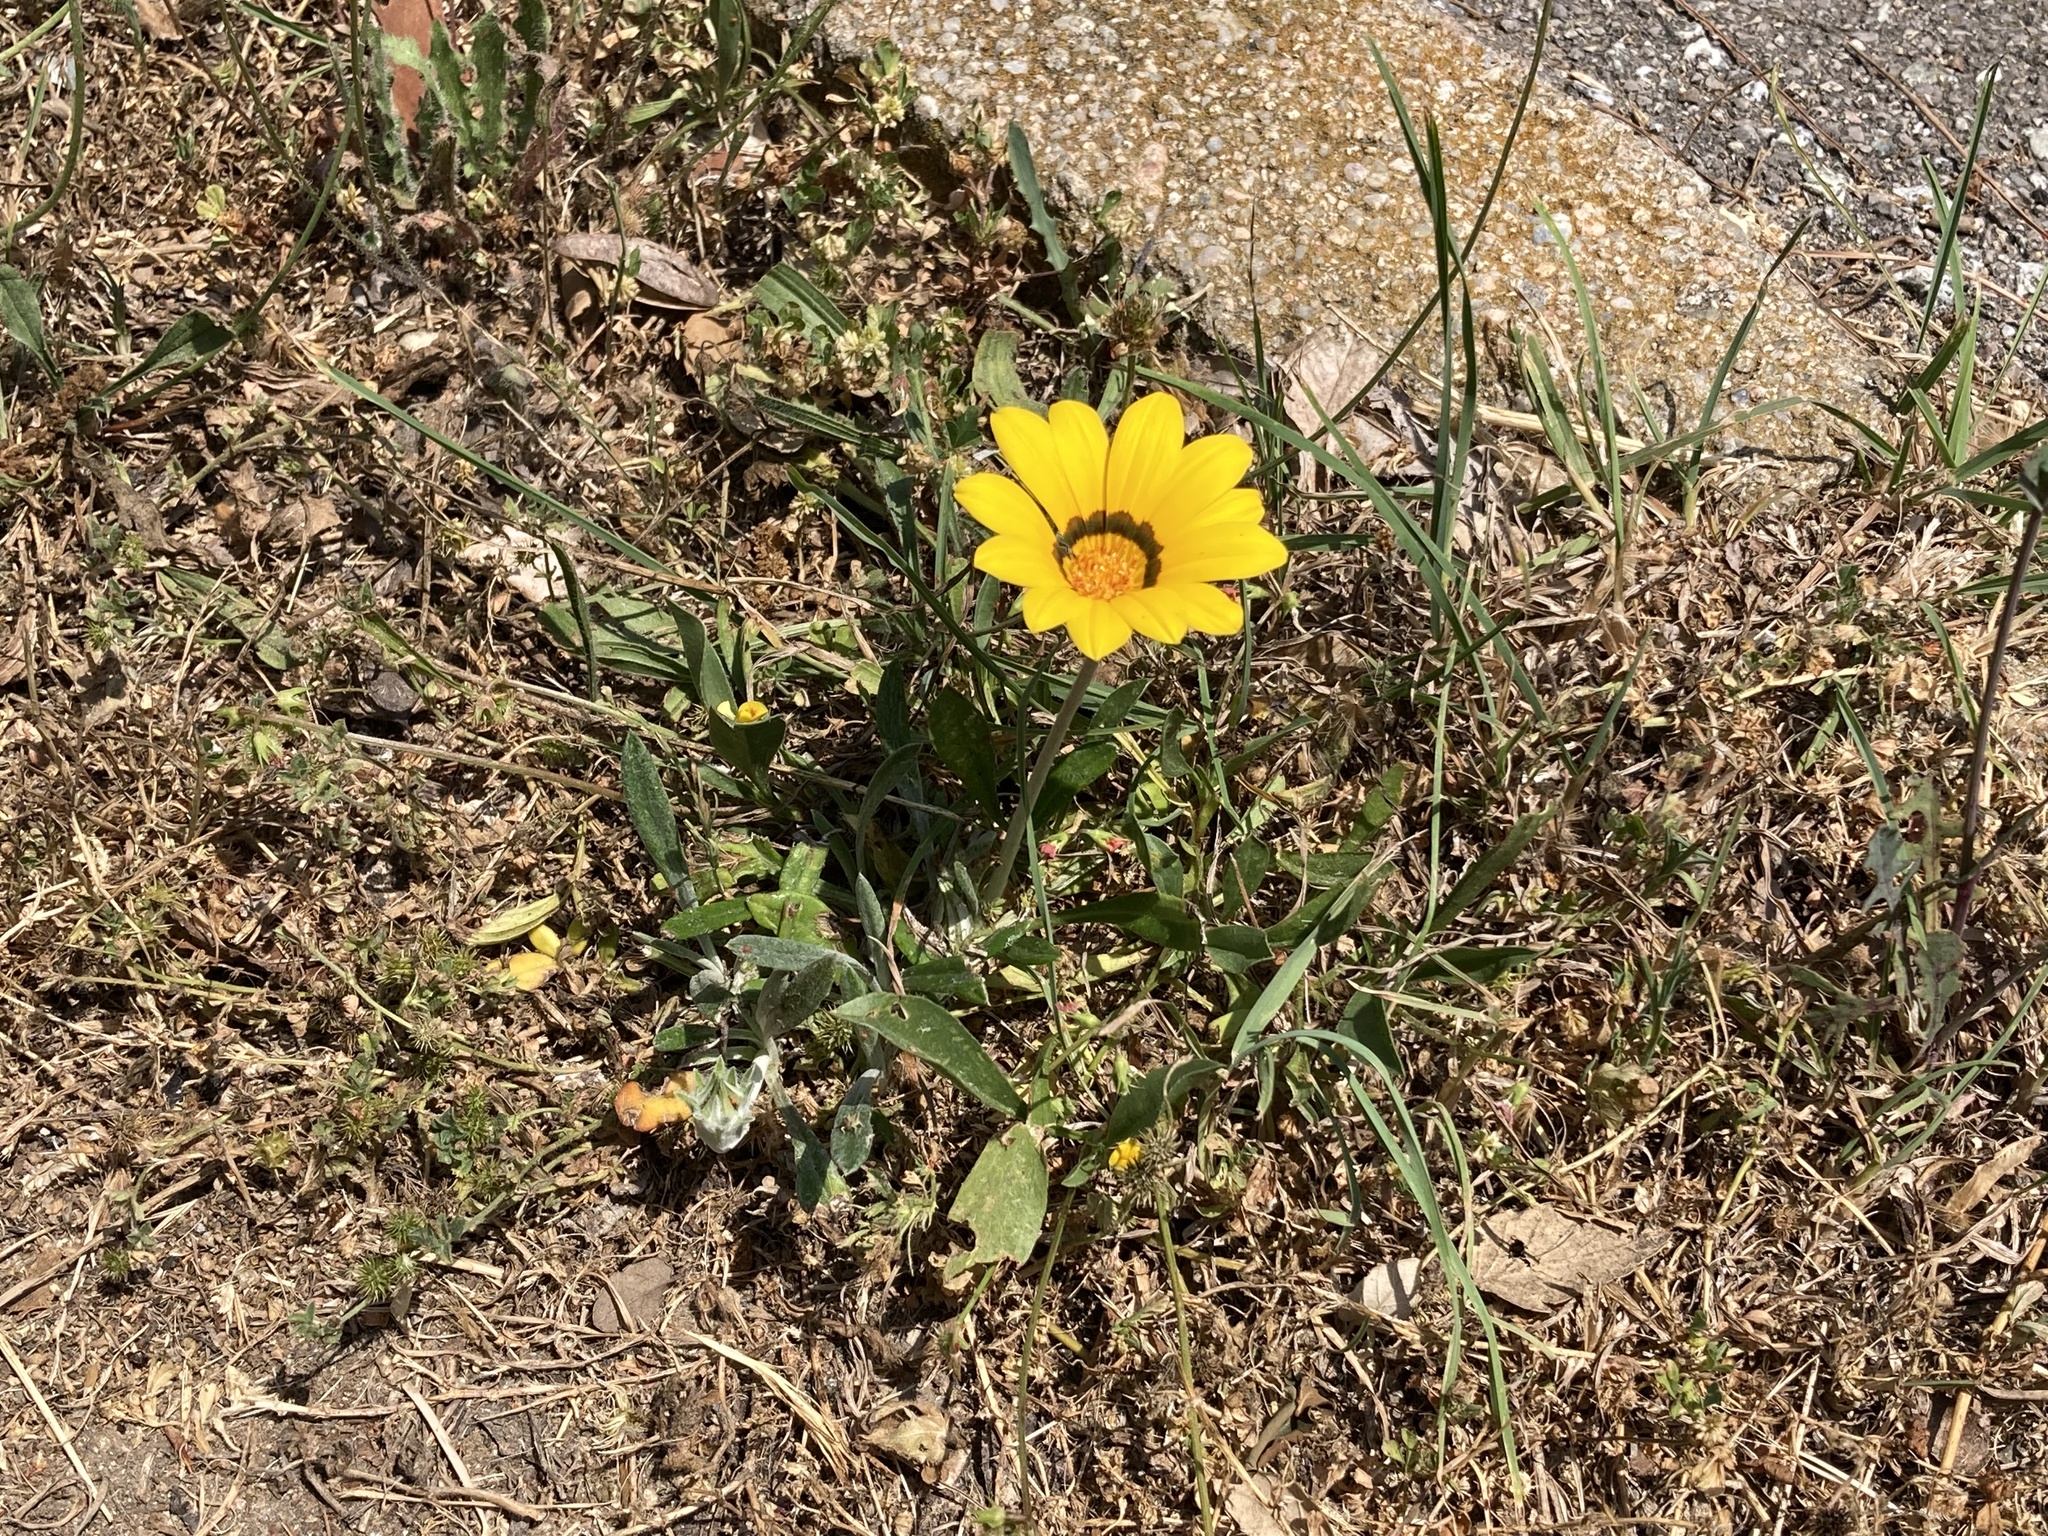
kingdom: Plantae
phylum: Tracheophyta
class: Magnoliopsida
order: Asterales
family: Asteraceae
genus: Gazania
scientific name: Gazania rigens
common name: Treasureflower
